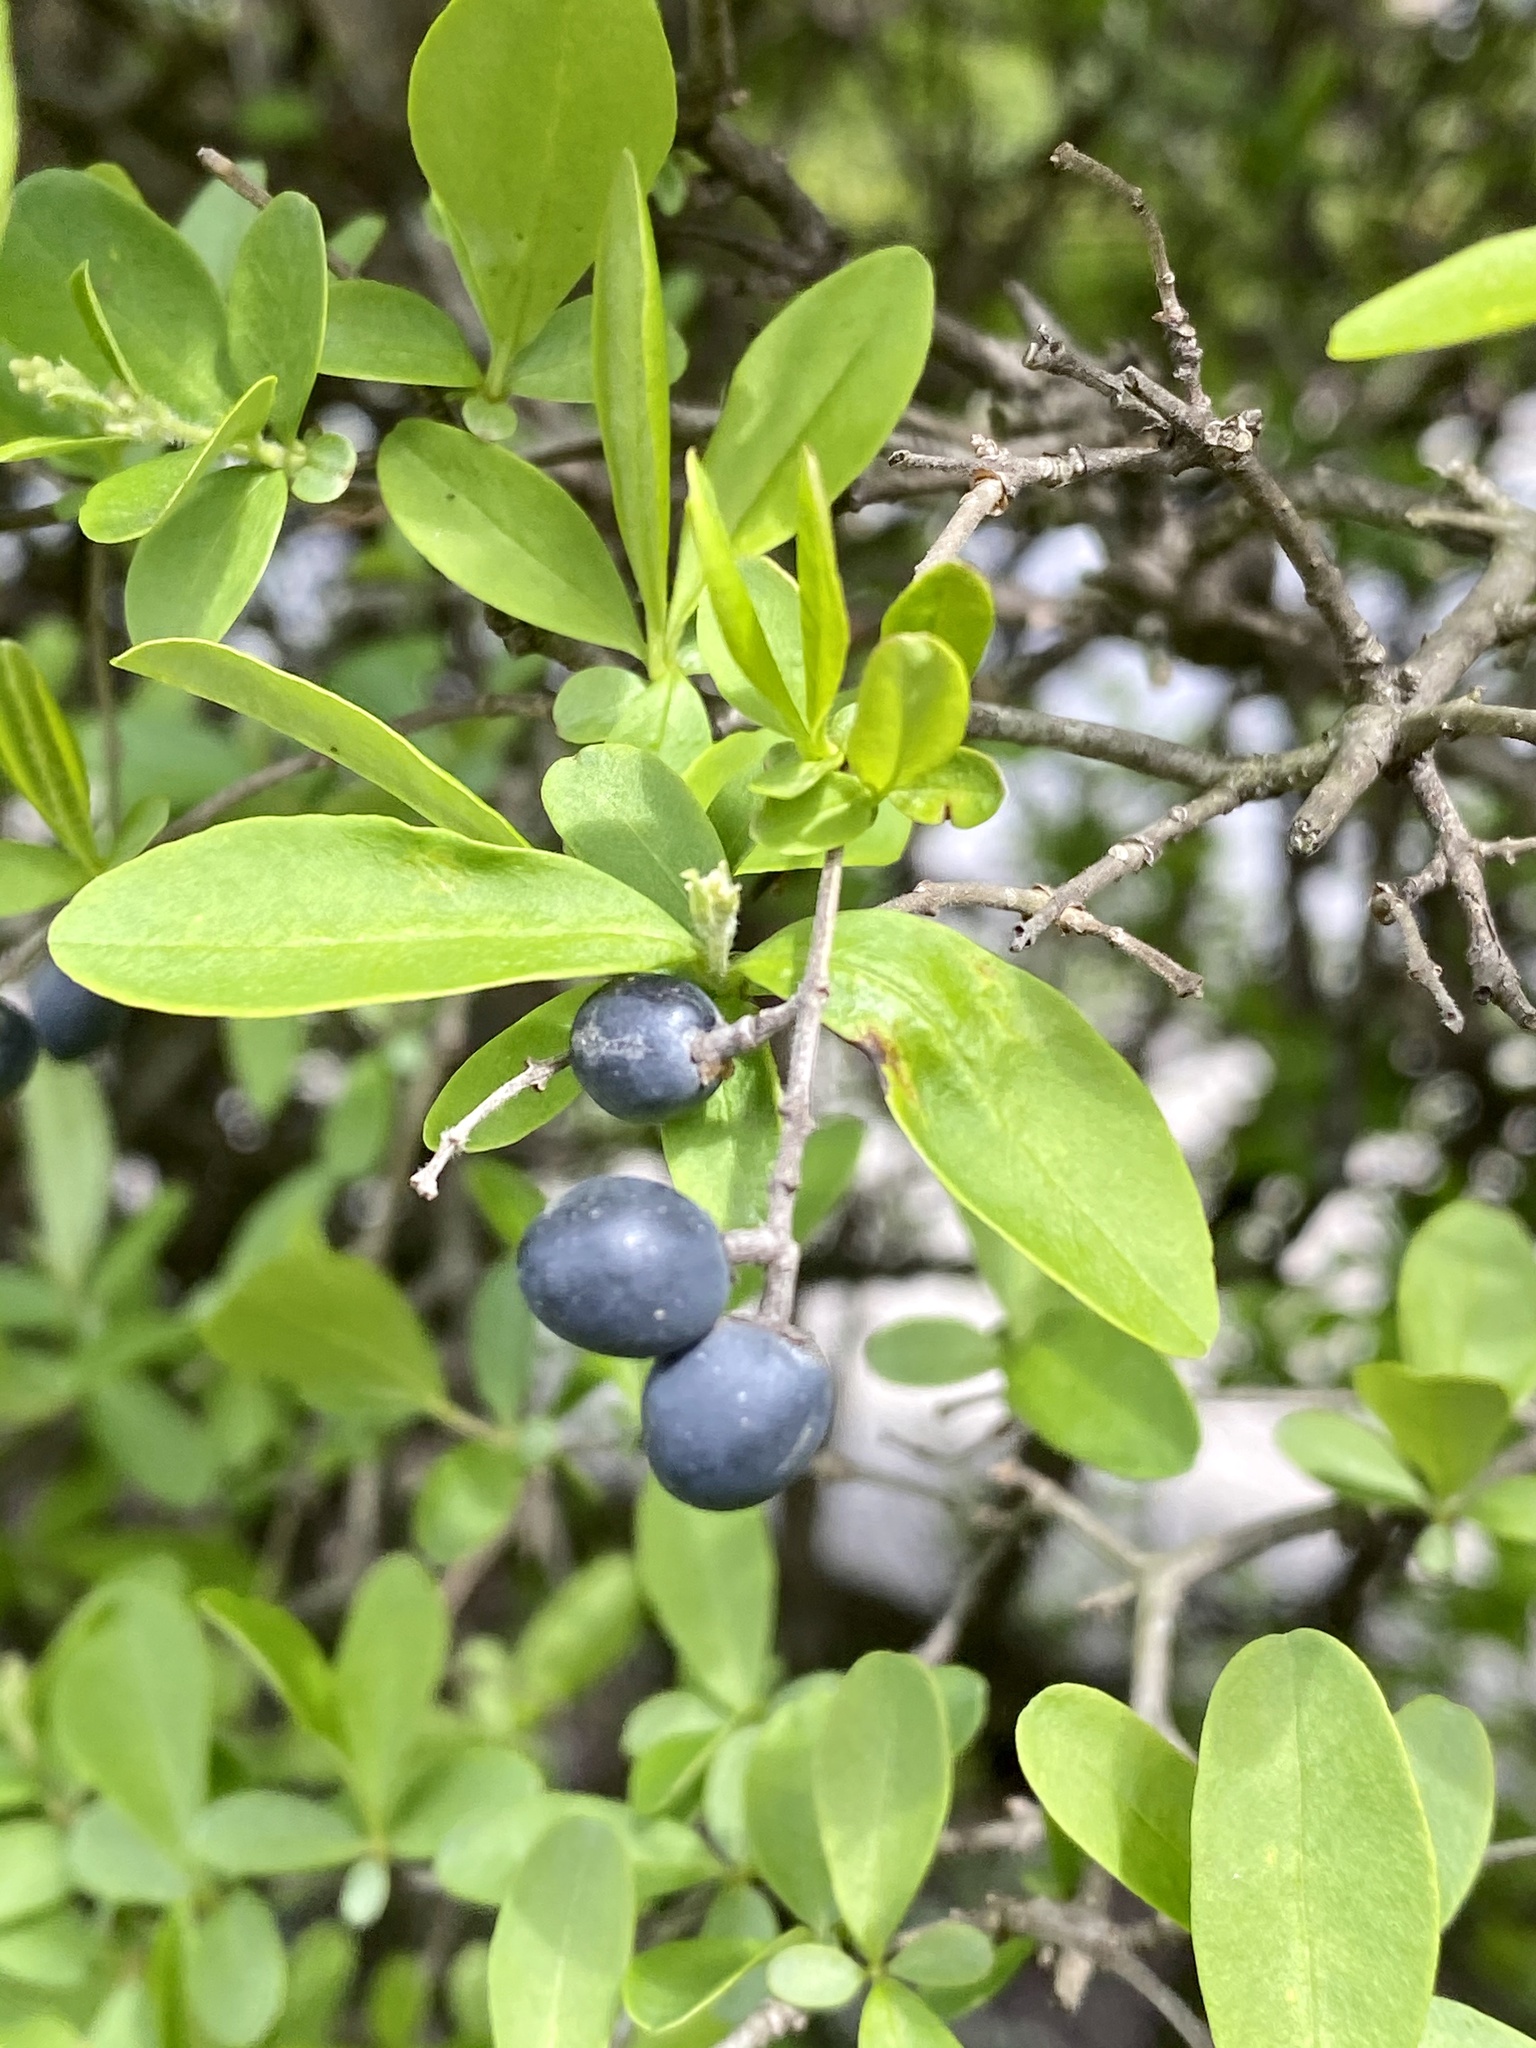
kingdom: Plantae
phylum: Tracheophyta
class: Magnoliopsida
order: Lamiales
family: Oleaceae
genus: Ligustrum
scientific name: Ligustrum obtusifolium
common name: Border privet
